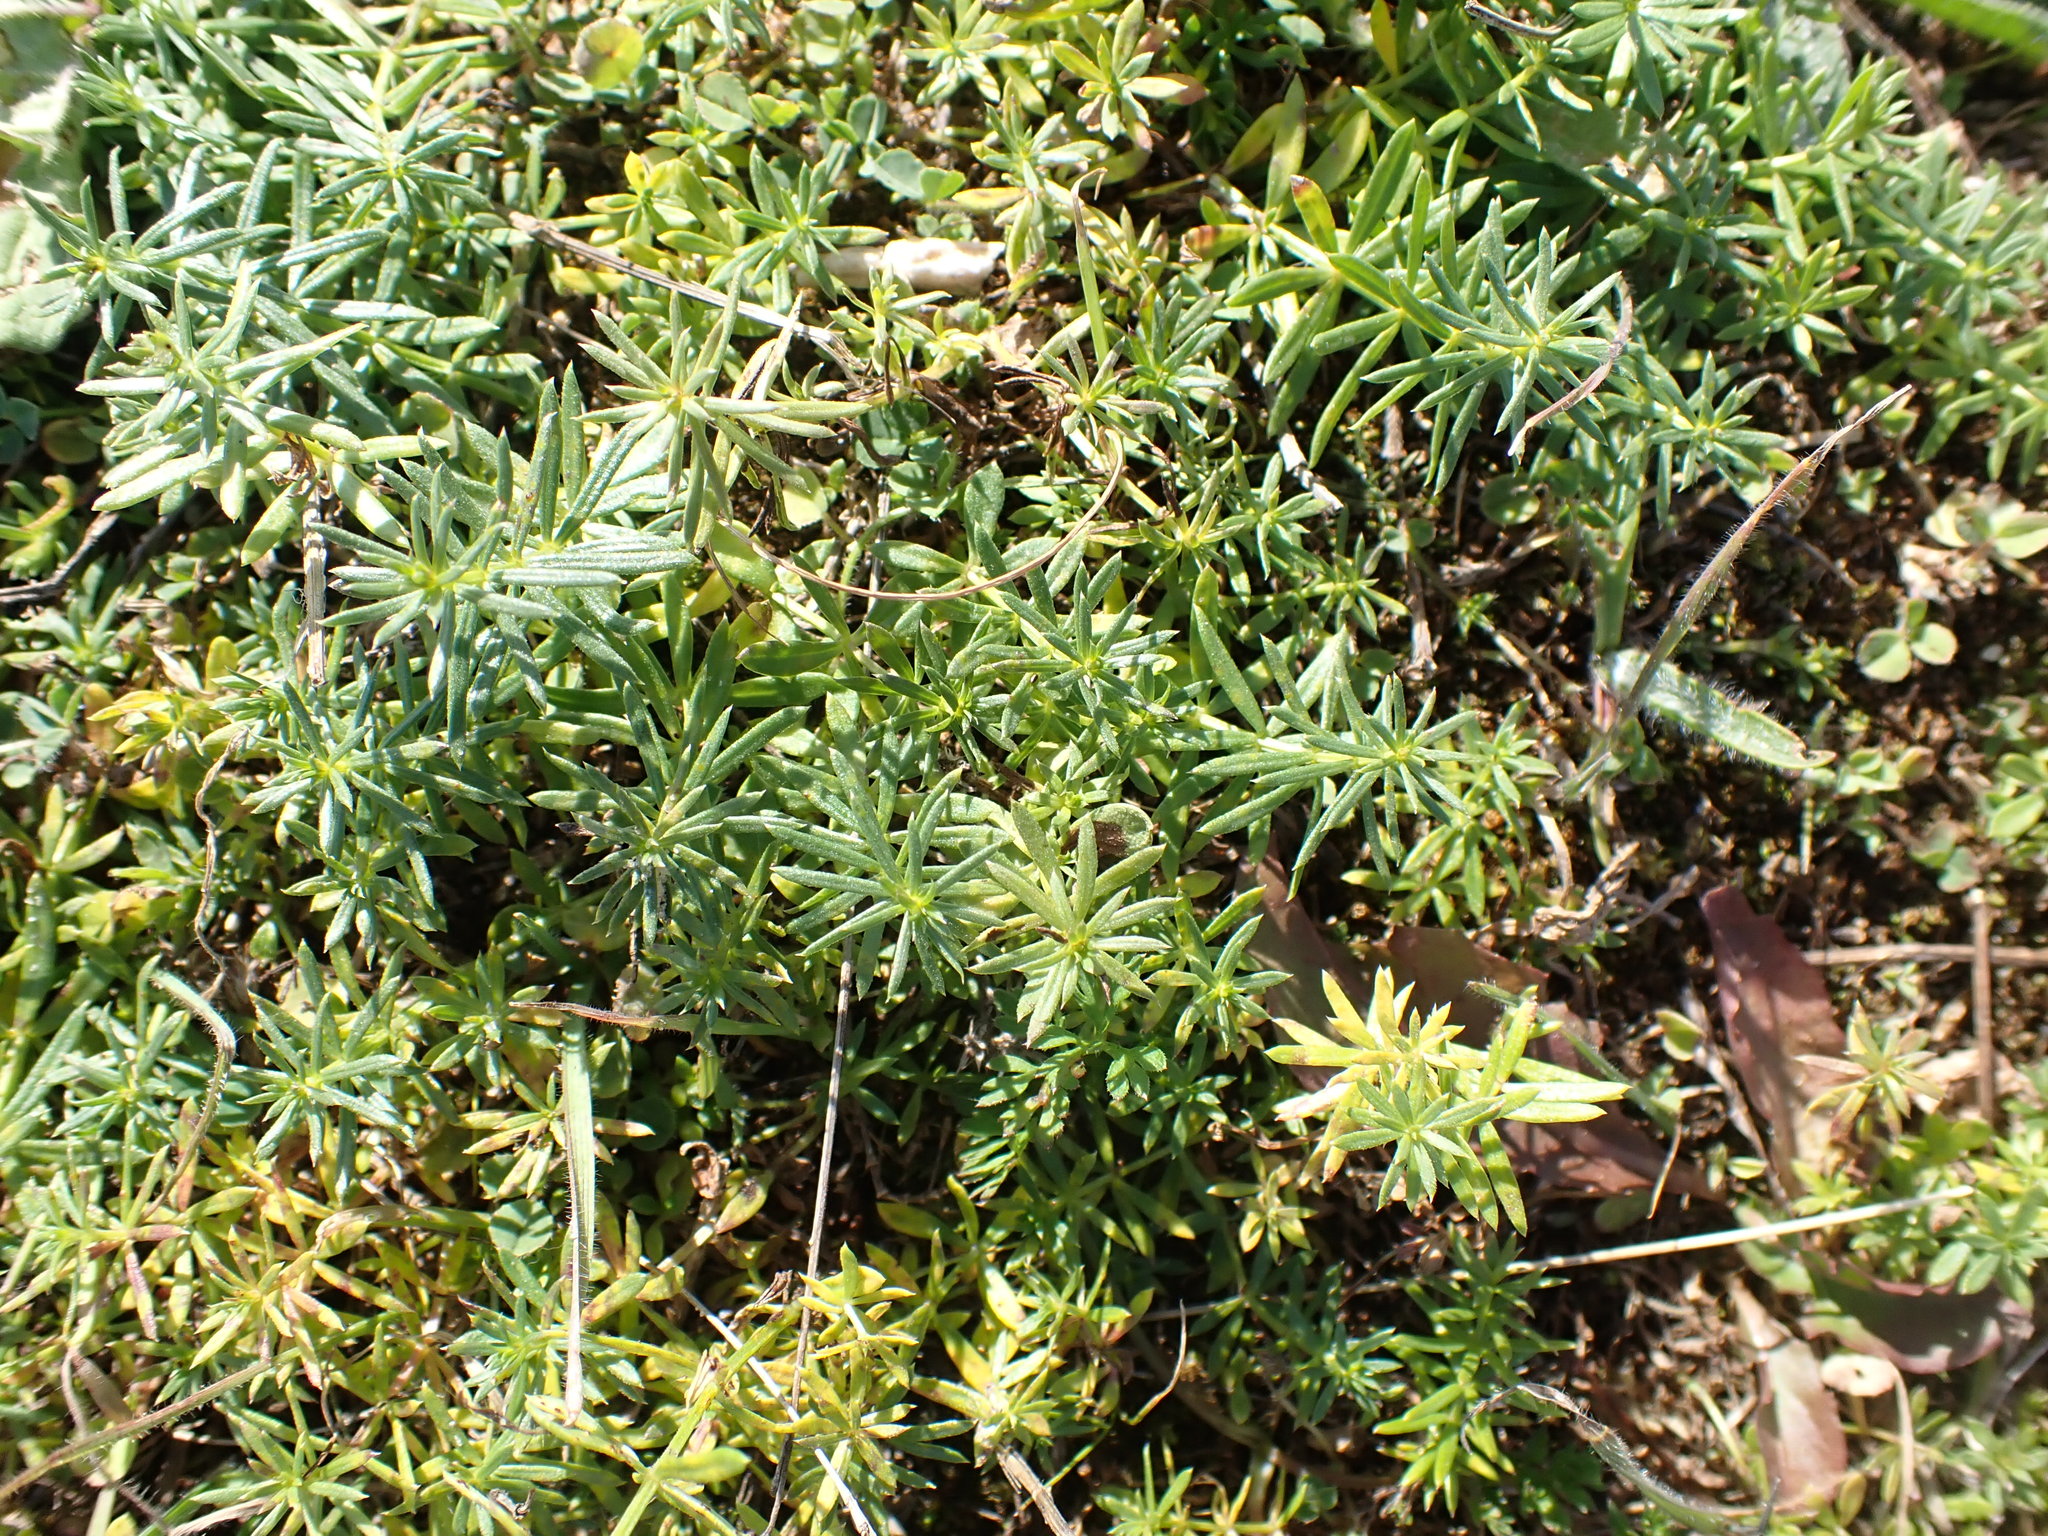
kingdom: Plantae
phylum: Tracheophyta
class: Magnoliopsida
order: Gentianales
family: Rubiaceae
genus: Galium
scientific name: Galium verum
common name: Lady's bedstraw
